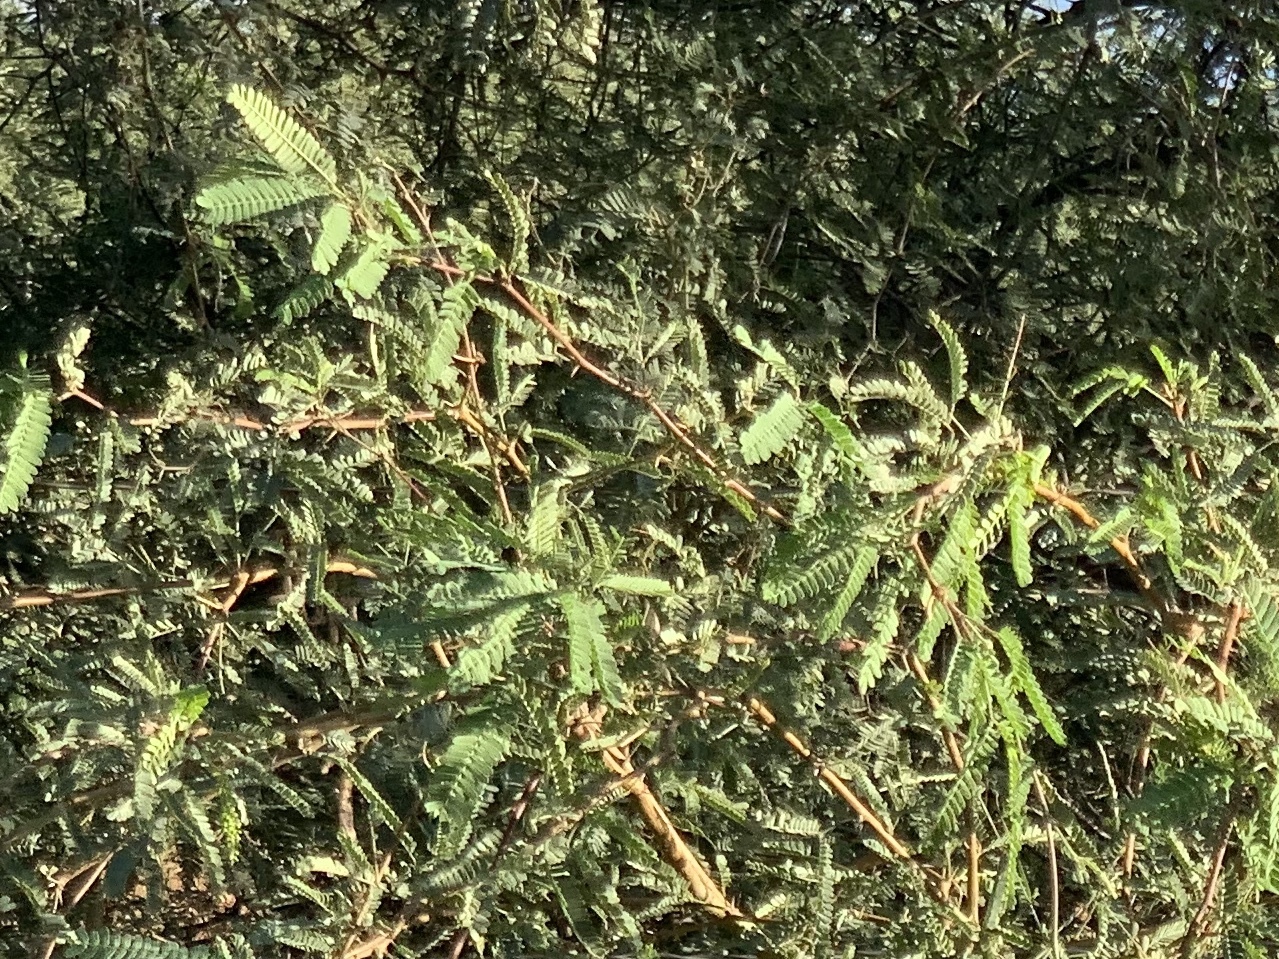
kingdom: Plantae
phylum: Tracheophyta
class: Magnoliopsida
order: Fabales
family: Fabaceae
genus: Prosopis
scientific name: Prosopis velutina
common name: Velvet mesquite
